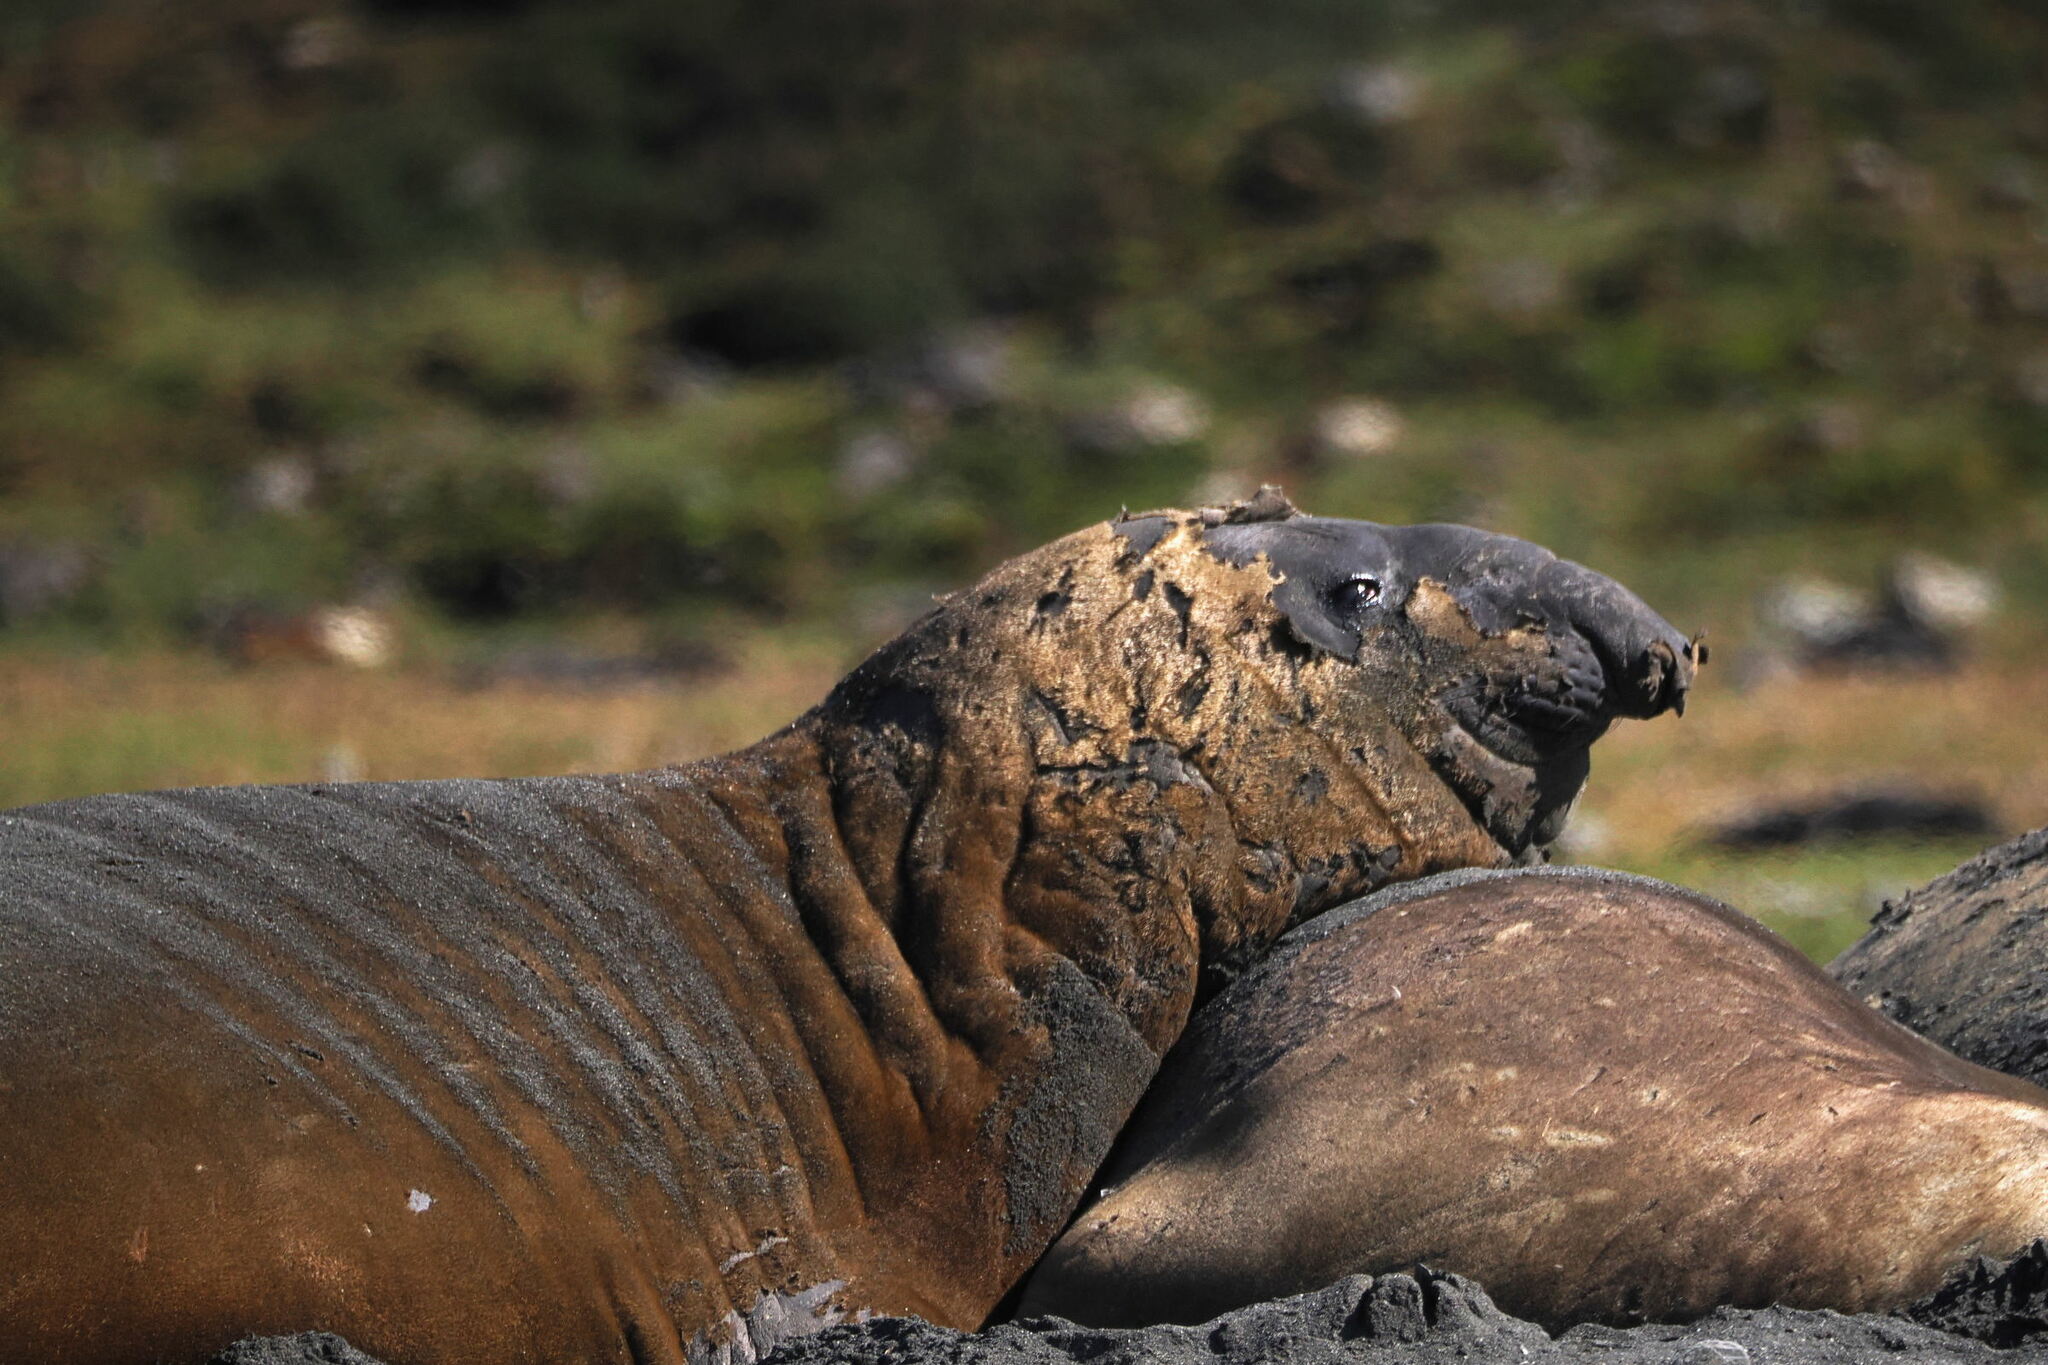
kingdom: Animalia
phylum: Chordata
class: Mammalia
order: Carnivora
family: Phocidae
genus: Mirounga
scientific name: Mirounga leonina
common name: Southern elephant seal
